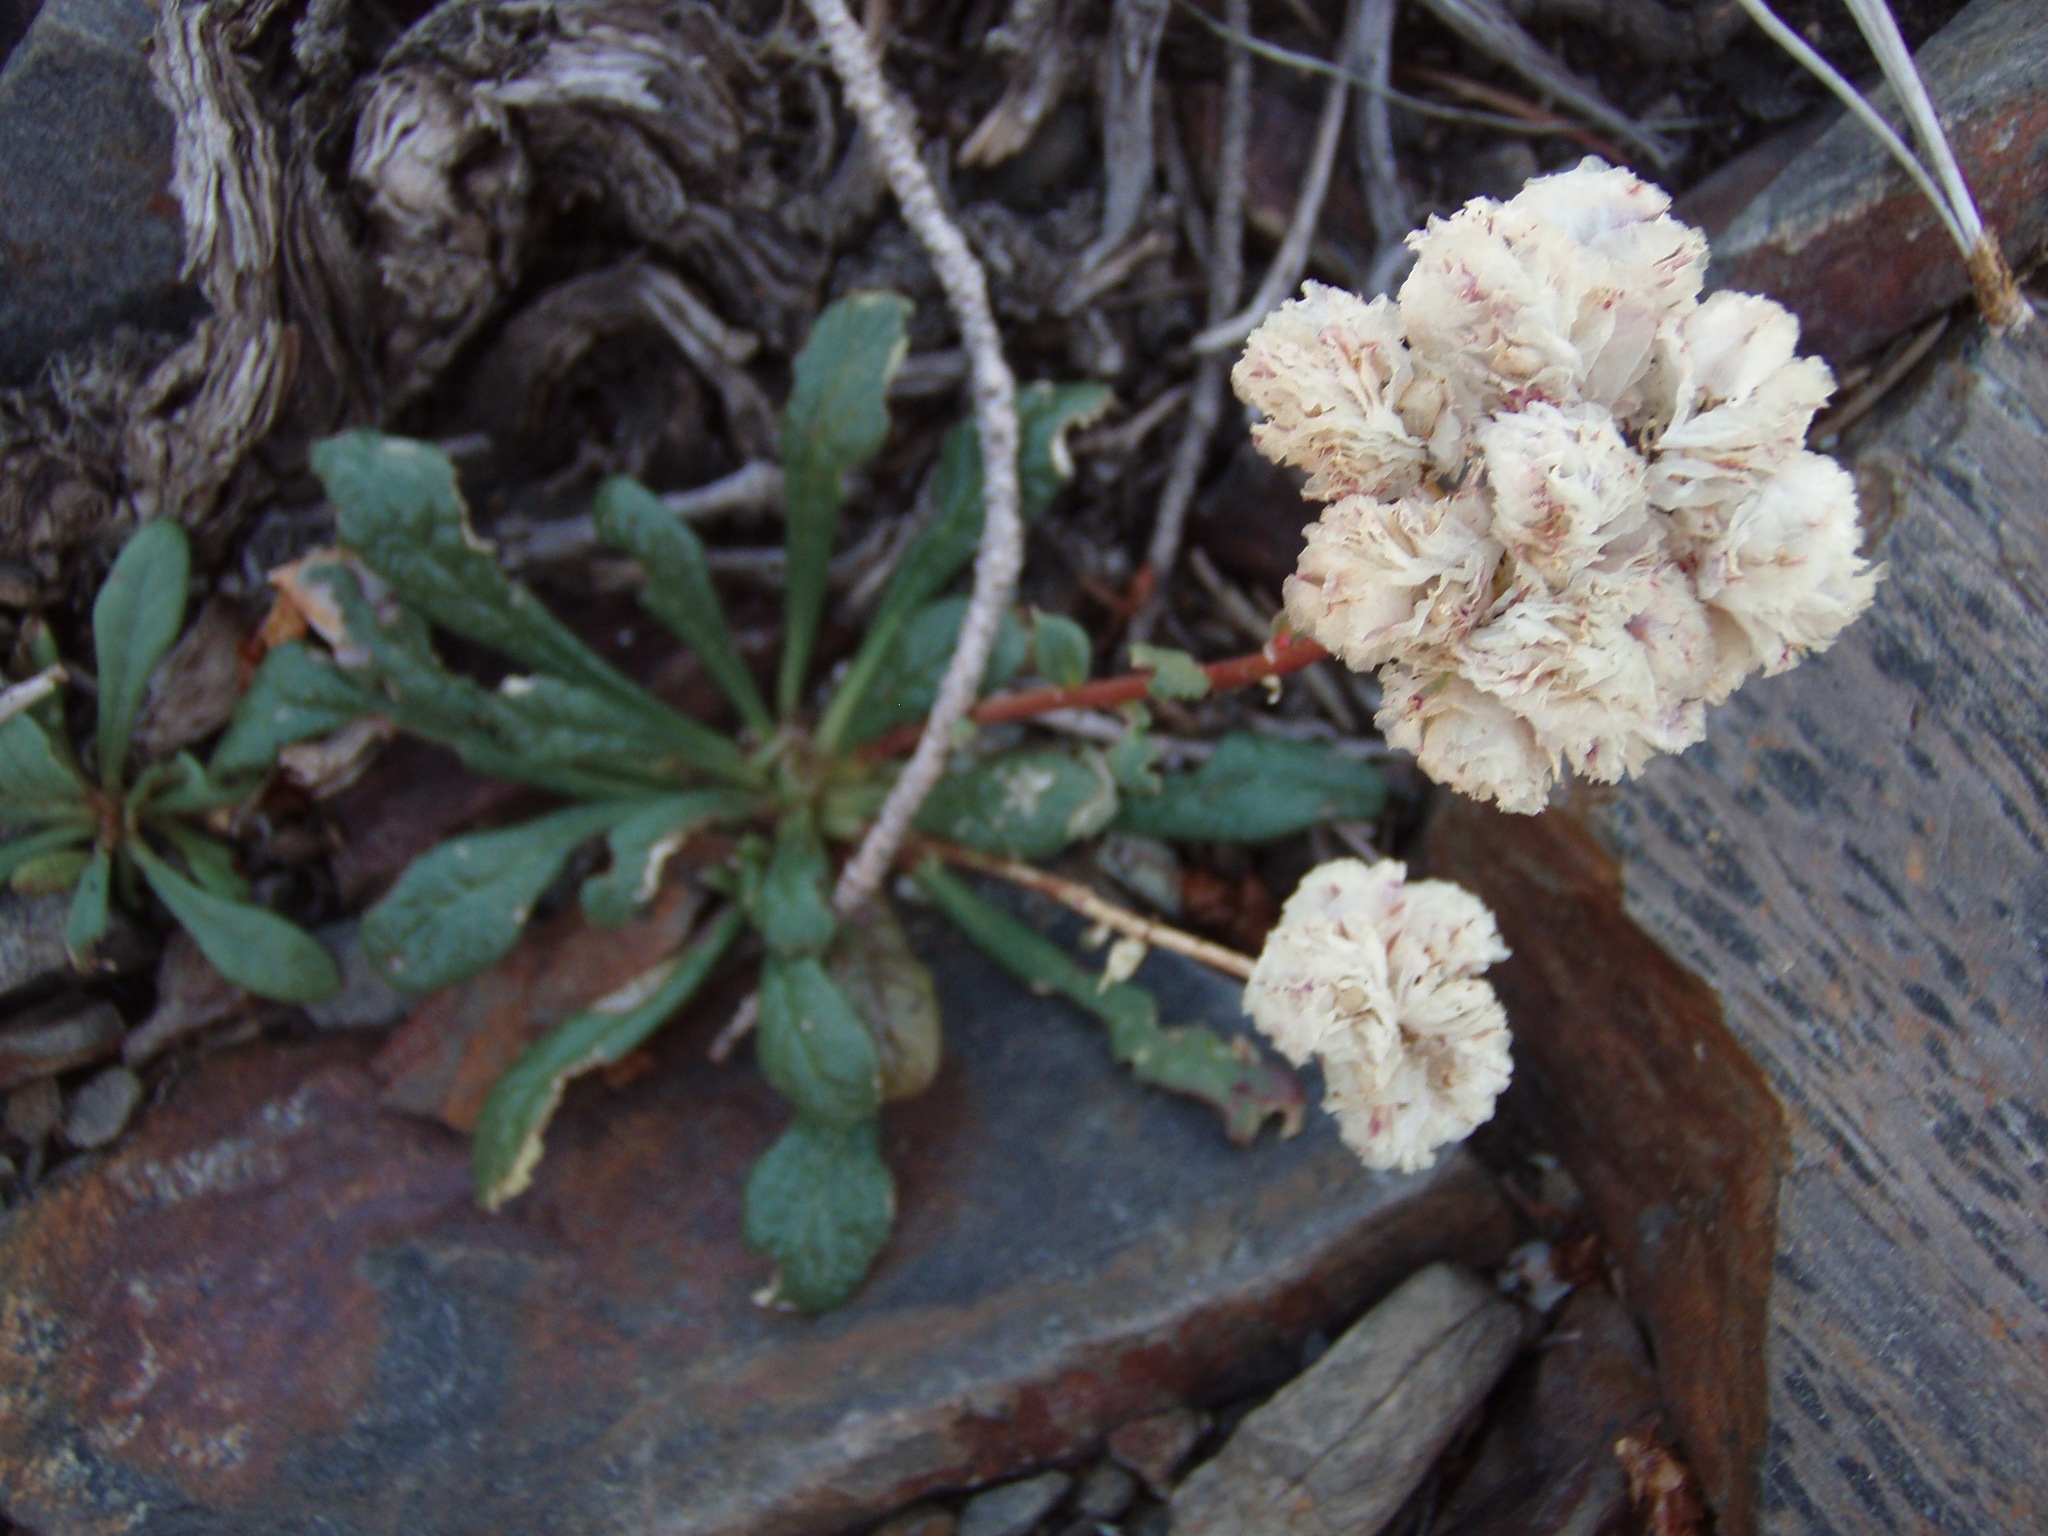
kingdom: Plantae
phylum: Tracheophyta
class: Magnoliopsida
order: Caryophyllales
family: Montiaceae
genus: Calyptridium
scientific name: Calyptridium monospermum
